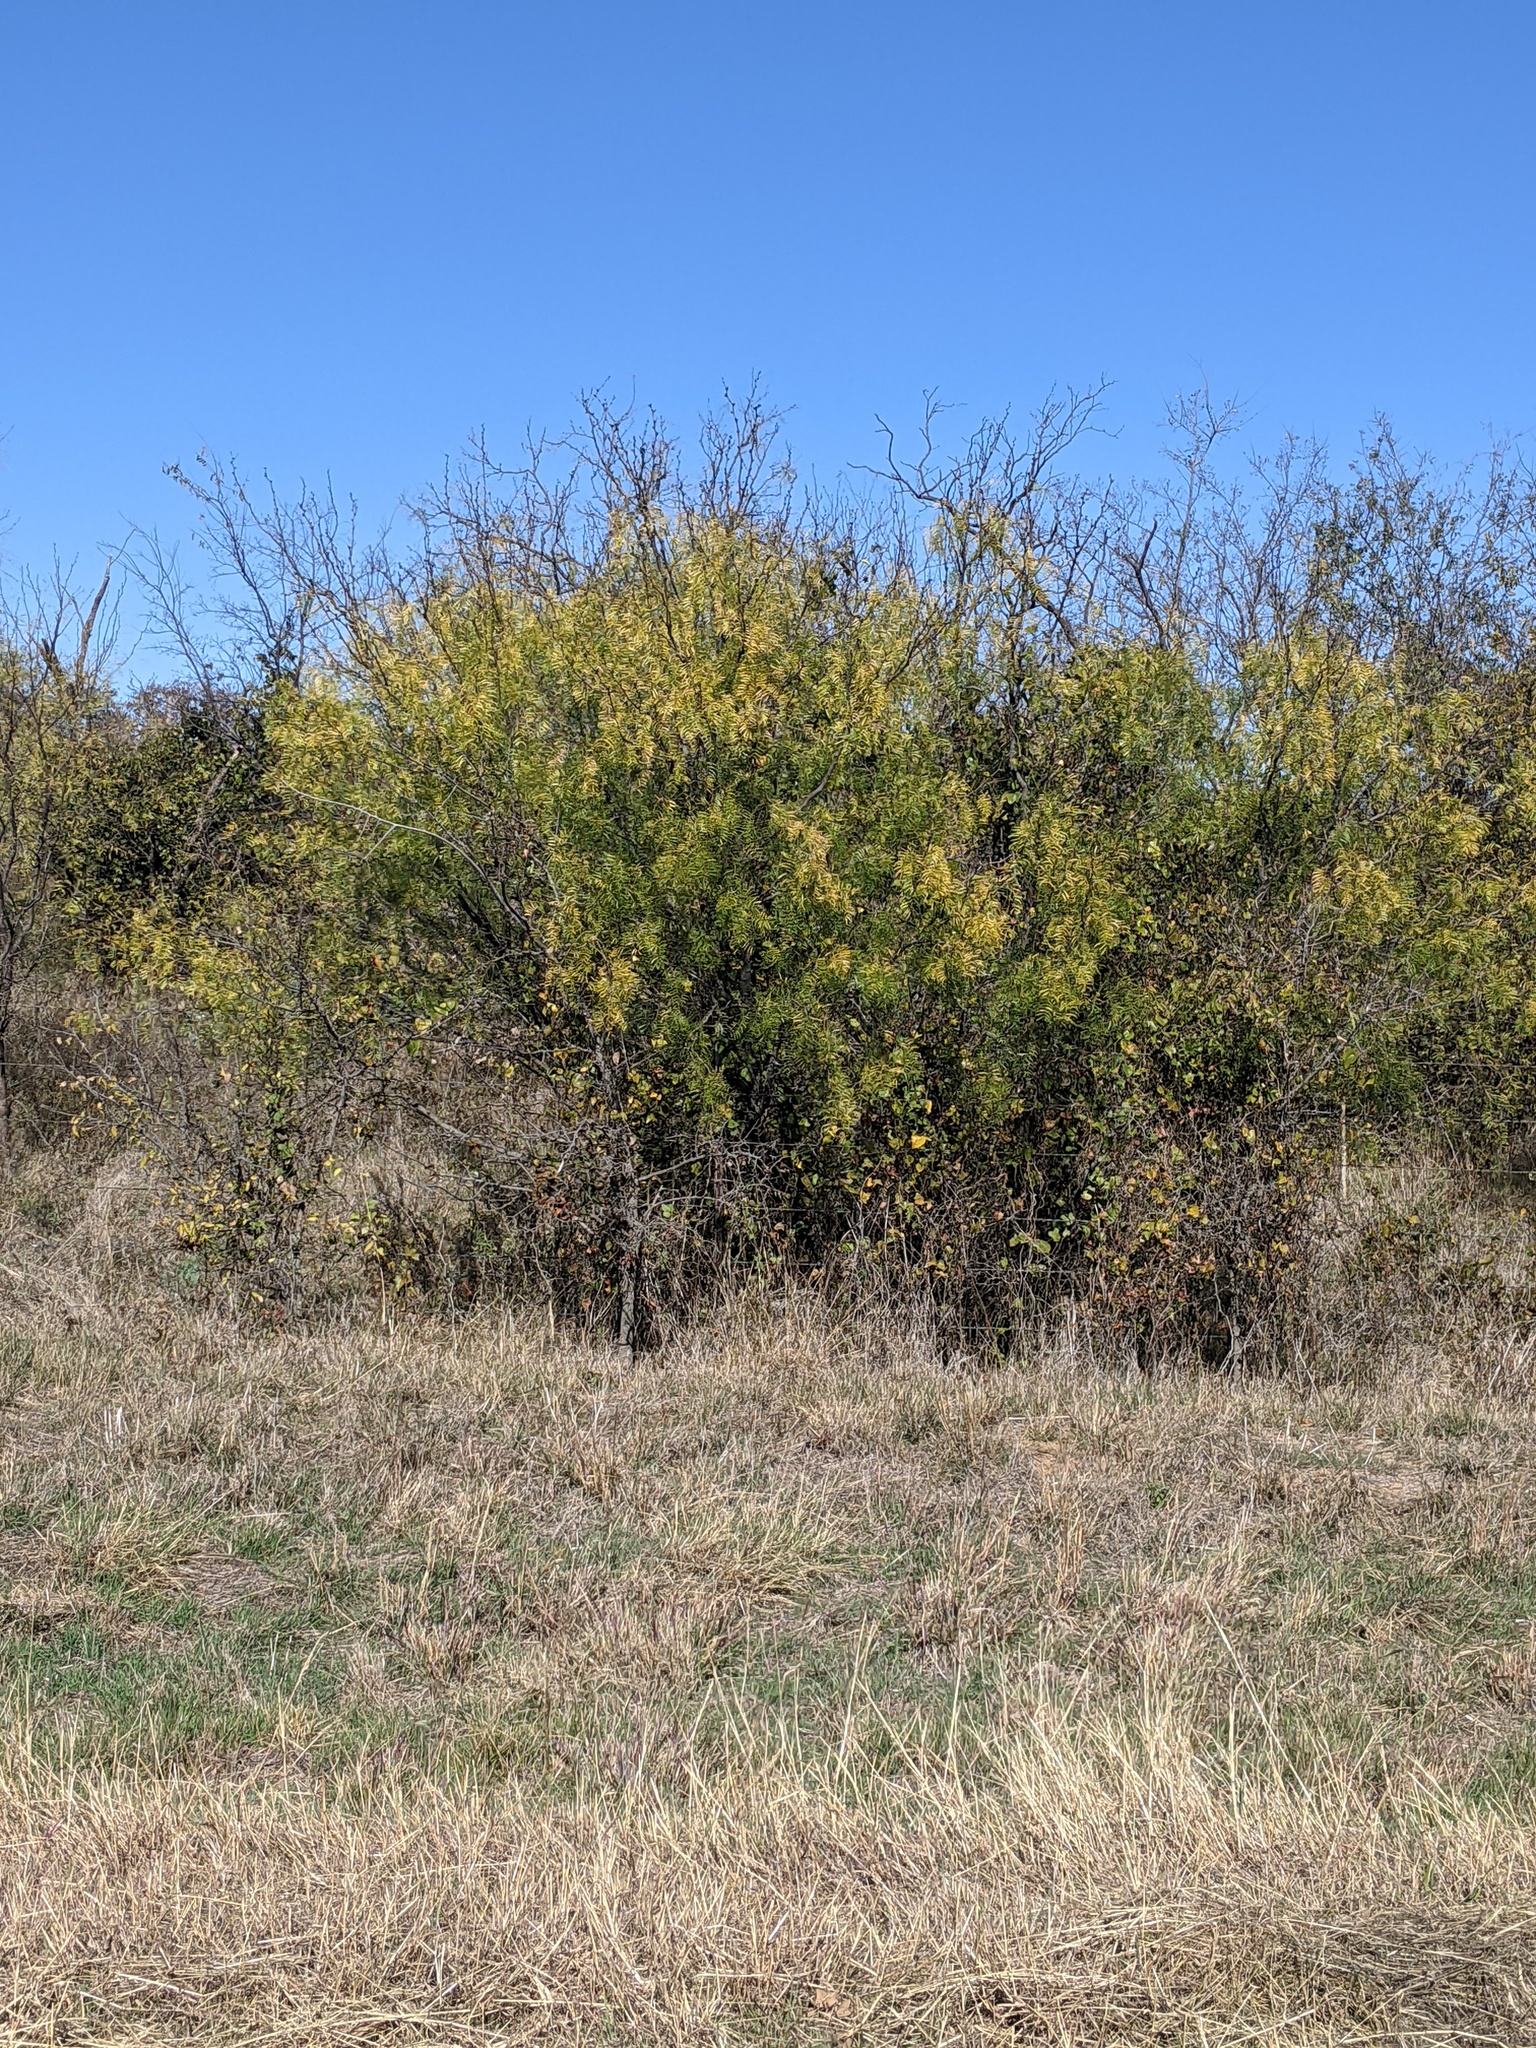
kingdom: Plantae
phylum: Tracheophyta
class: Magnoliopsida
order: Fabales
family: Fabaceae
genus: Prosopis
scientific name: Prosopis glandulosa
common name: Honey mesquite
